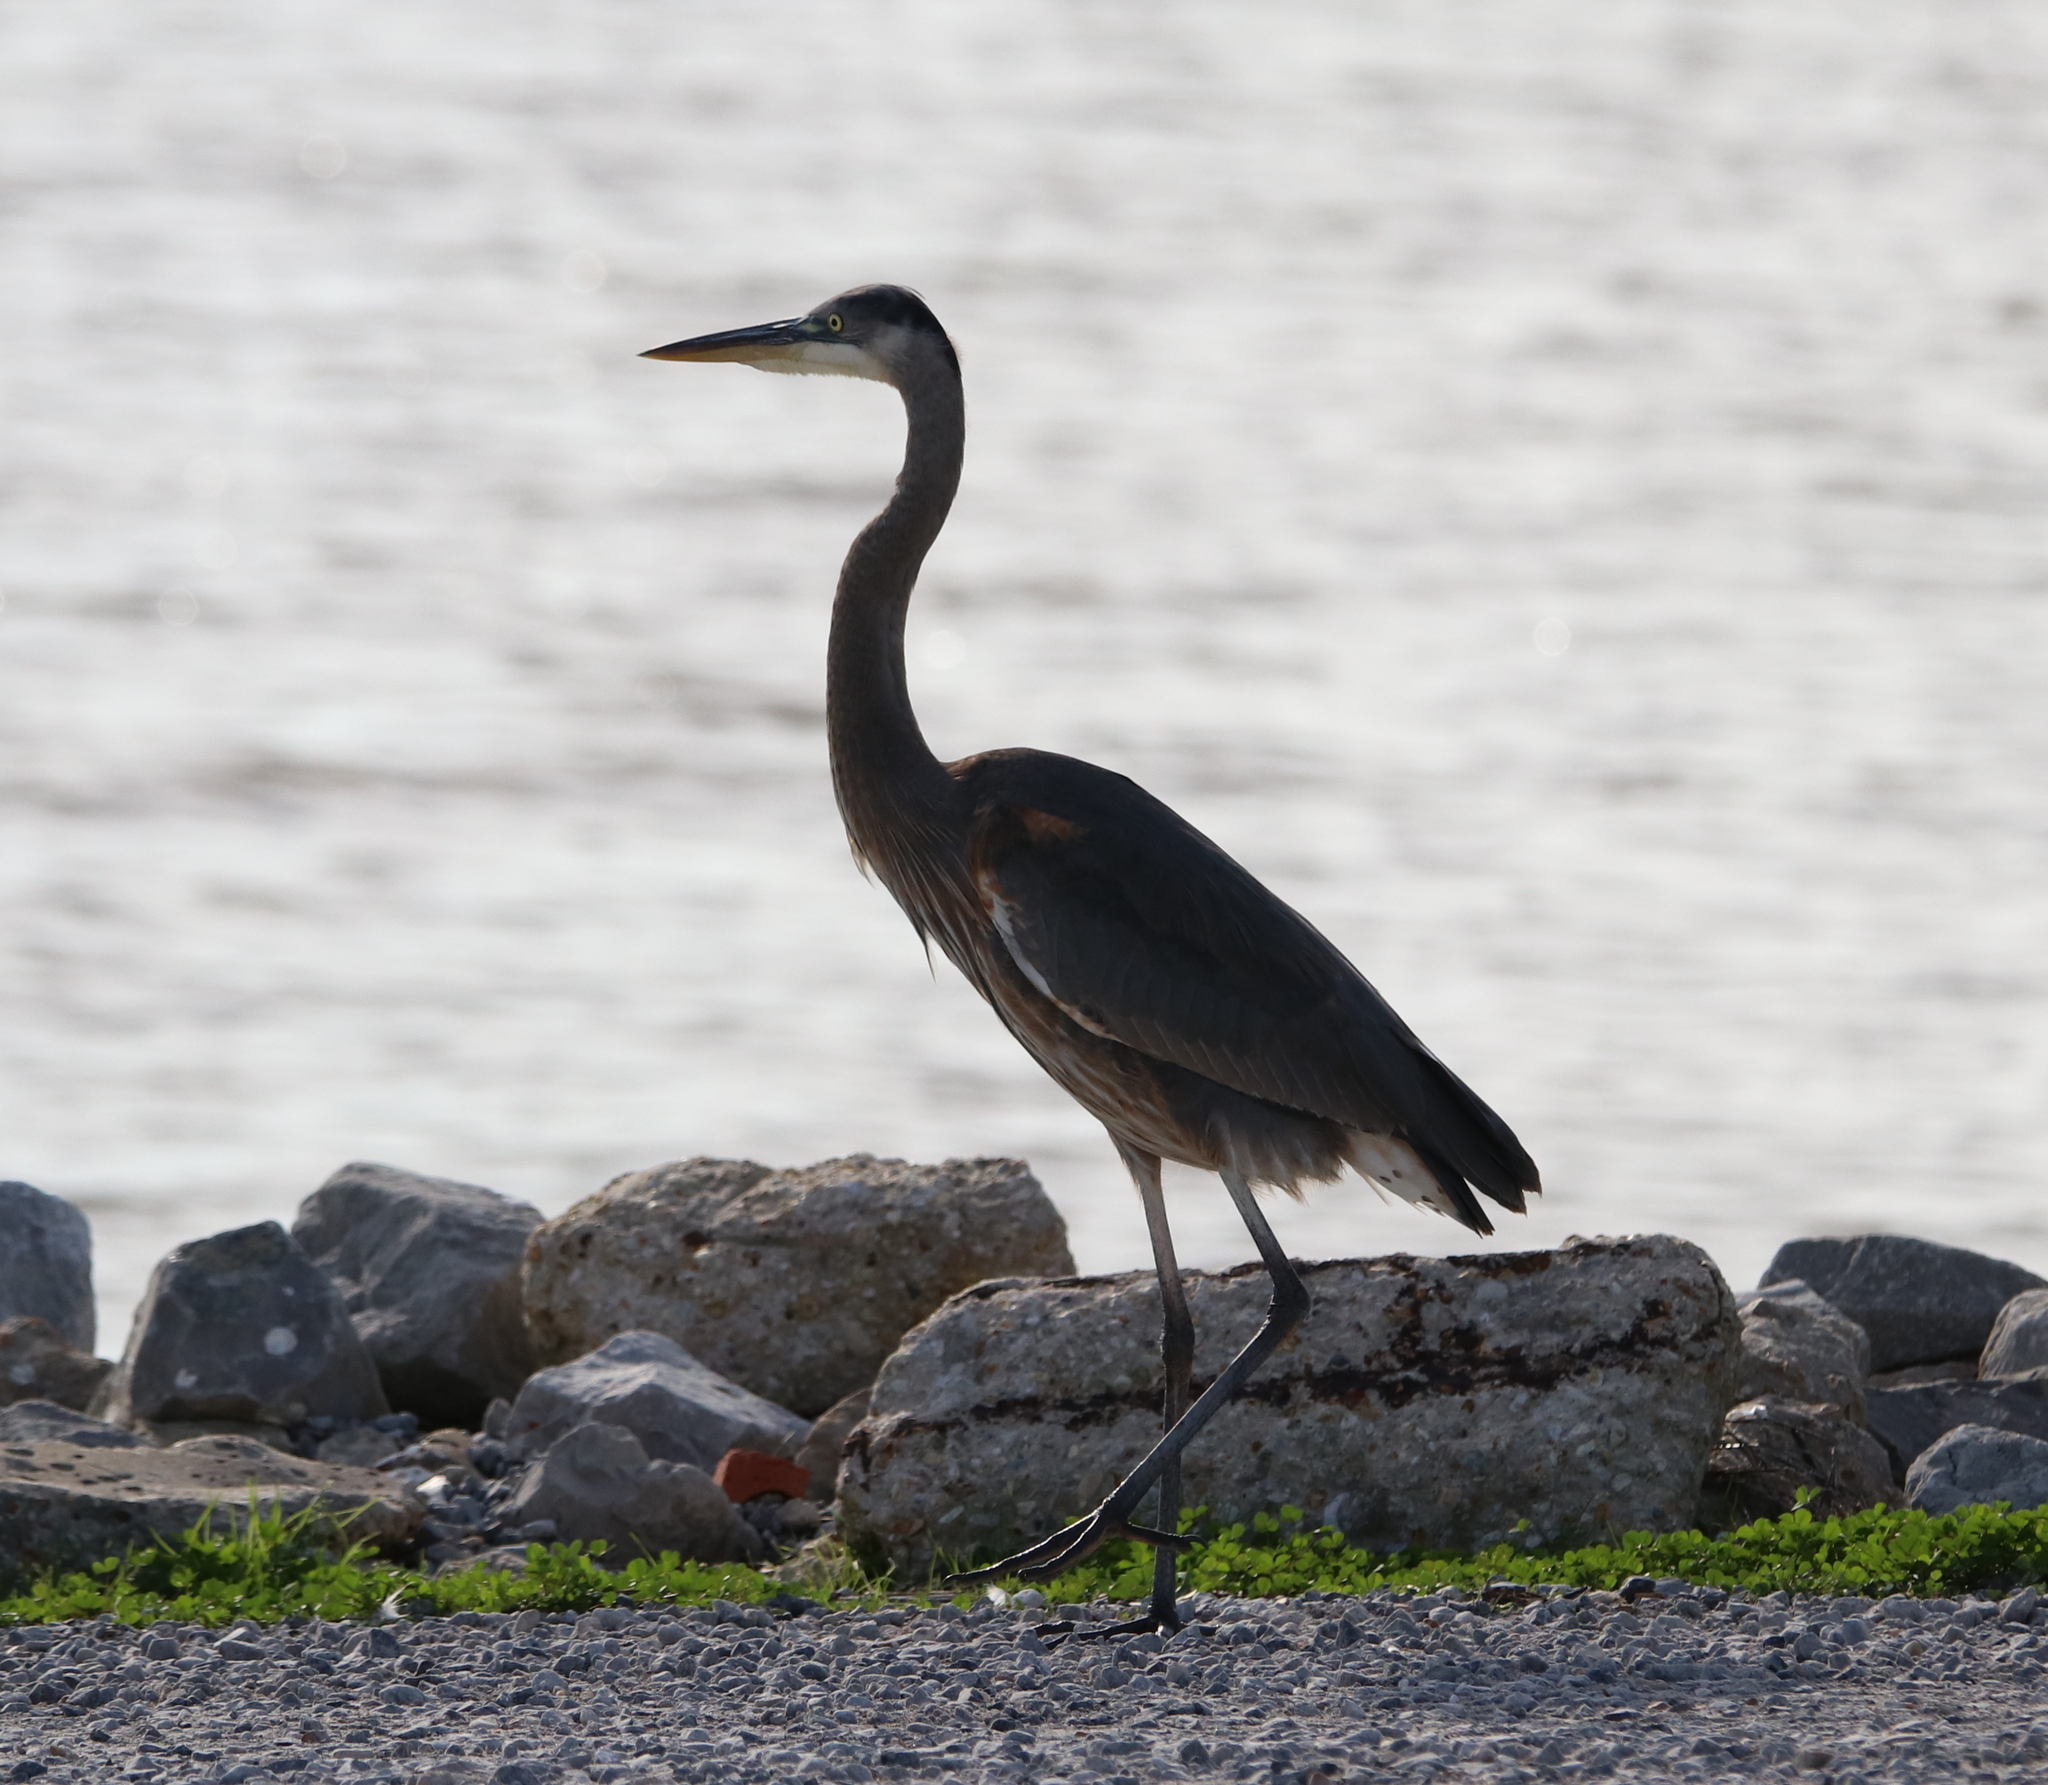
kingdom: Animalia
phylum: Chordata
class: Aves
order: Pelecaniformes
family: Ardeidae
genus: Ardea
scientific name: Ardea herodias
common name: Great blue heron
